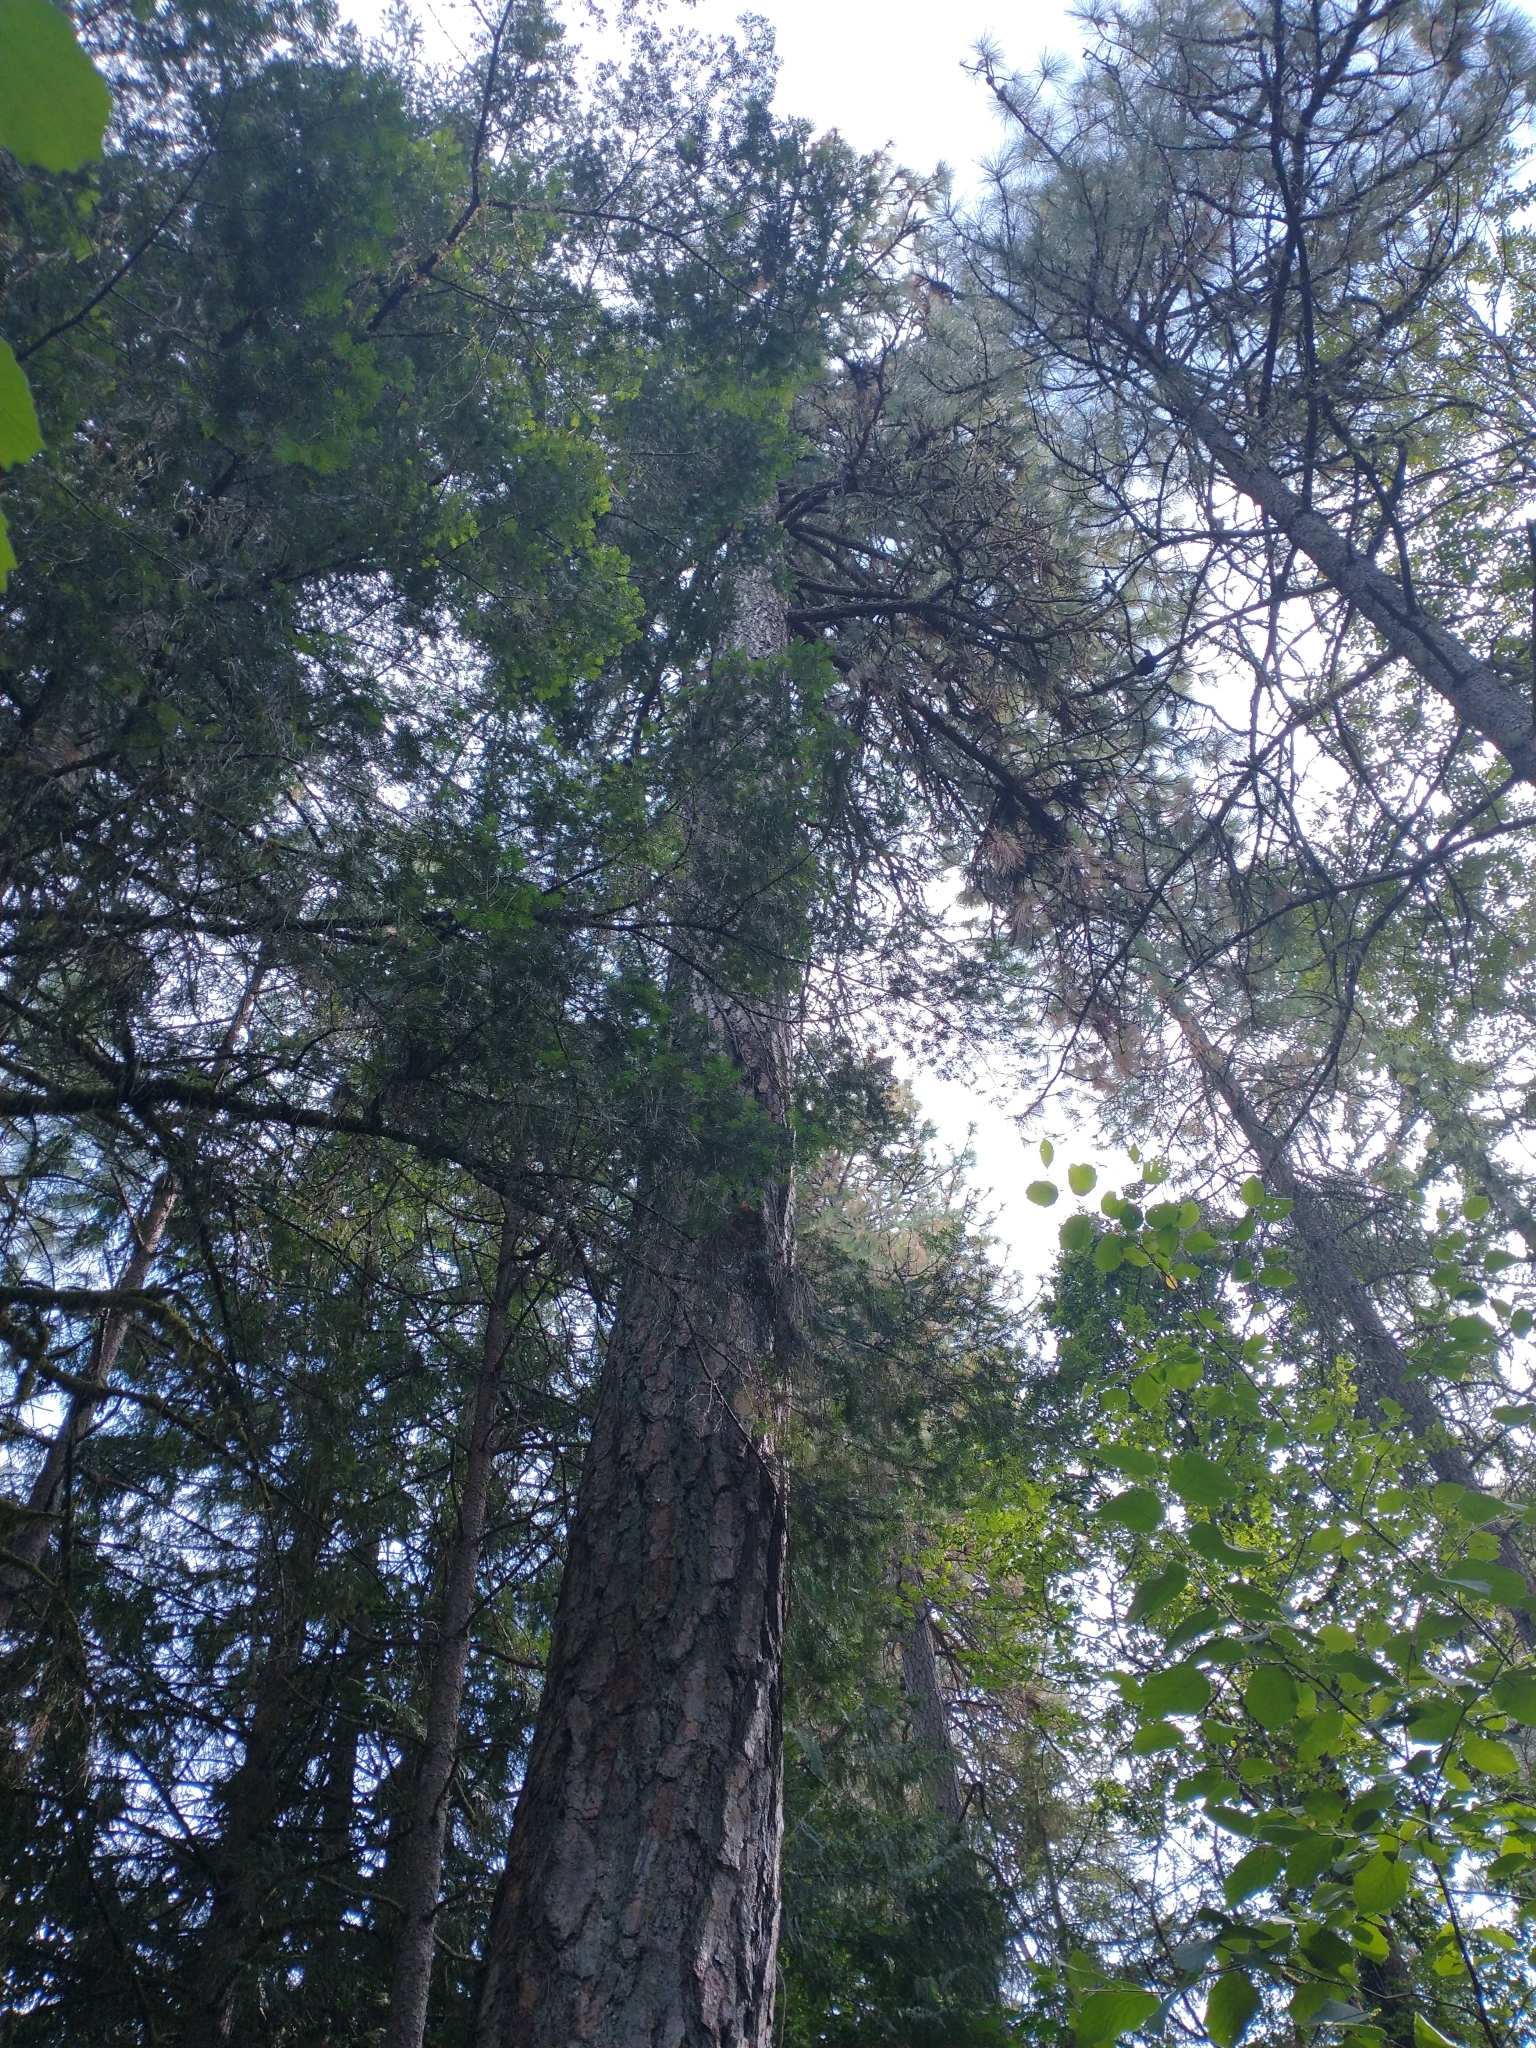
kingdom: Plantae
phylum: Tracheophyta
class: Pinopsida
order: Pinales
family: Pinaceae
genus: Pinus
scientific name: Pinus ponderosa
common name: Western yellow-pine
